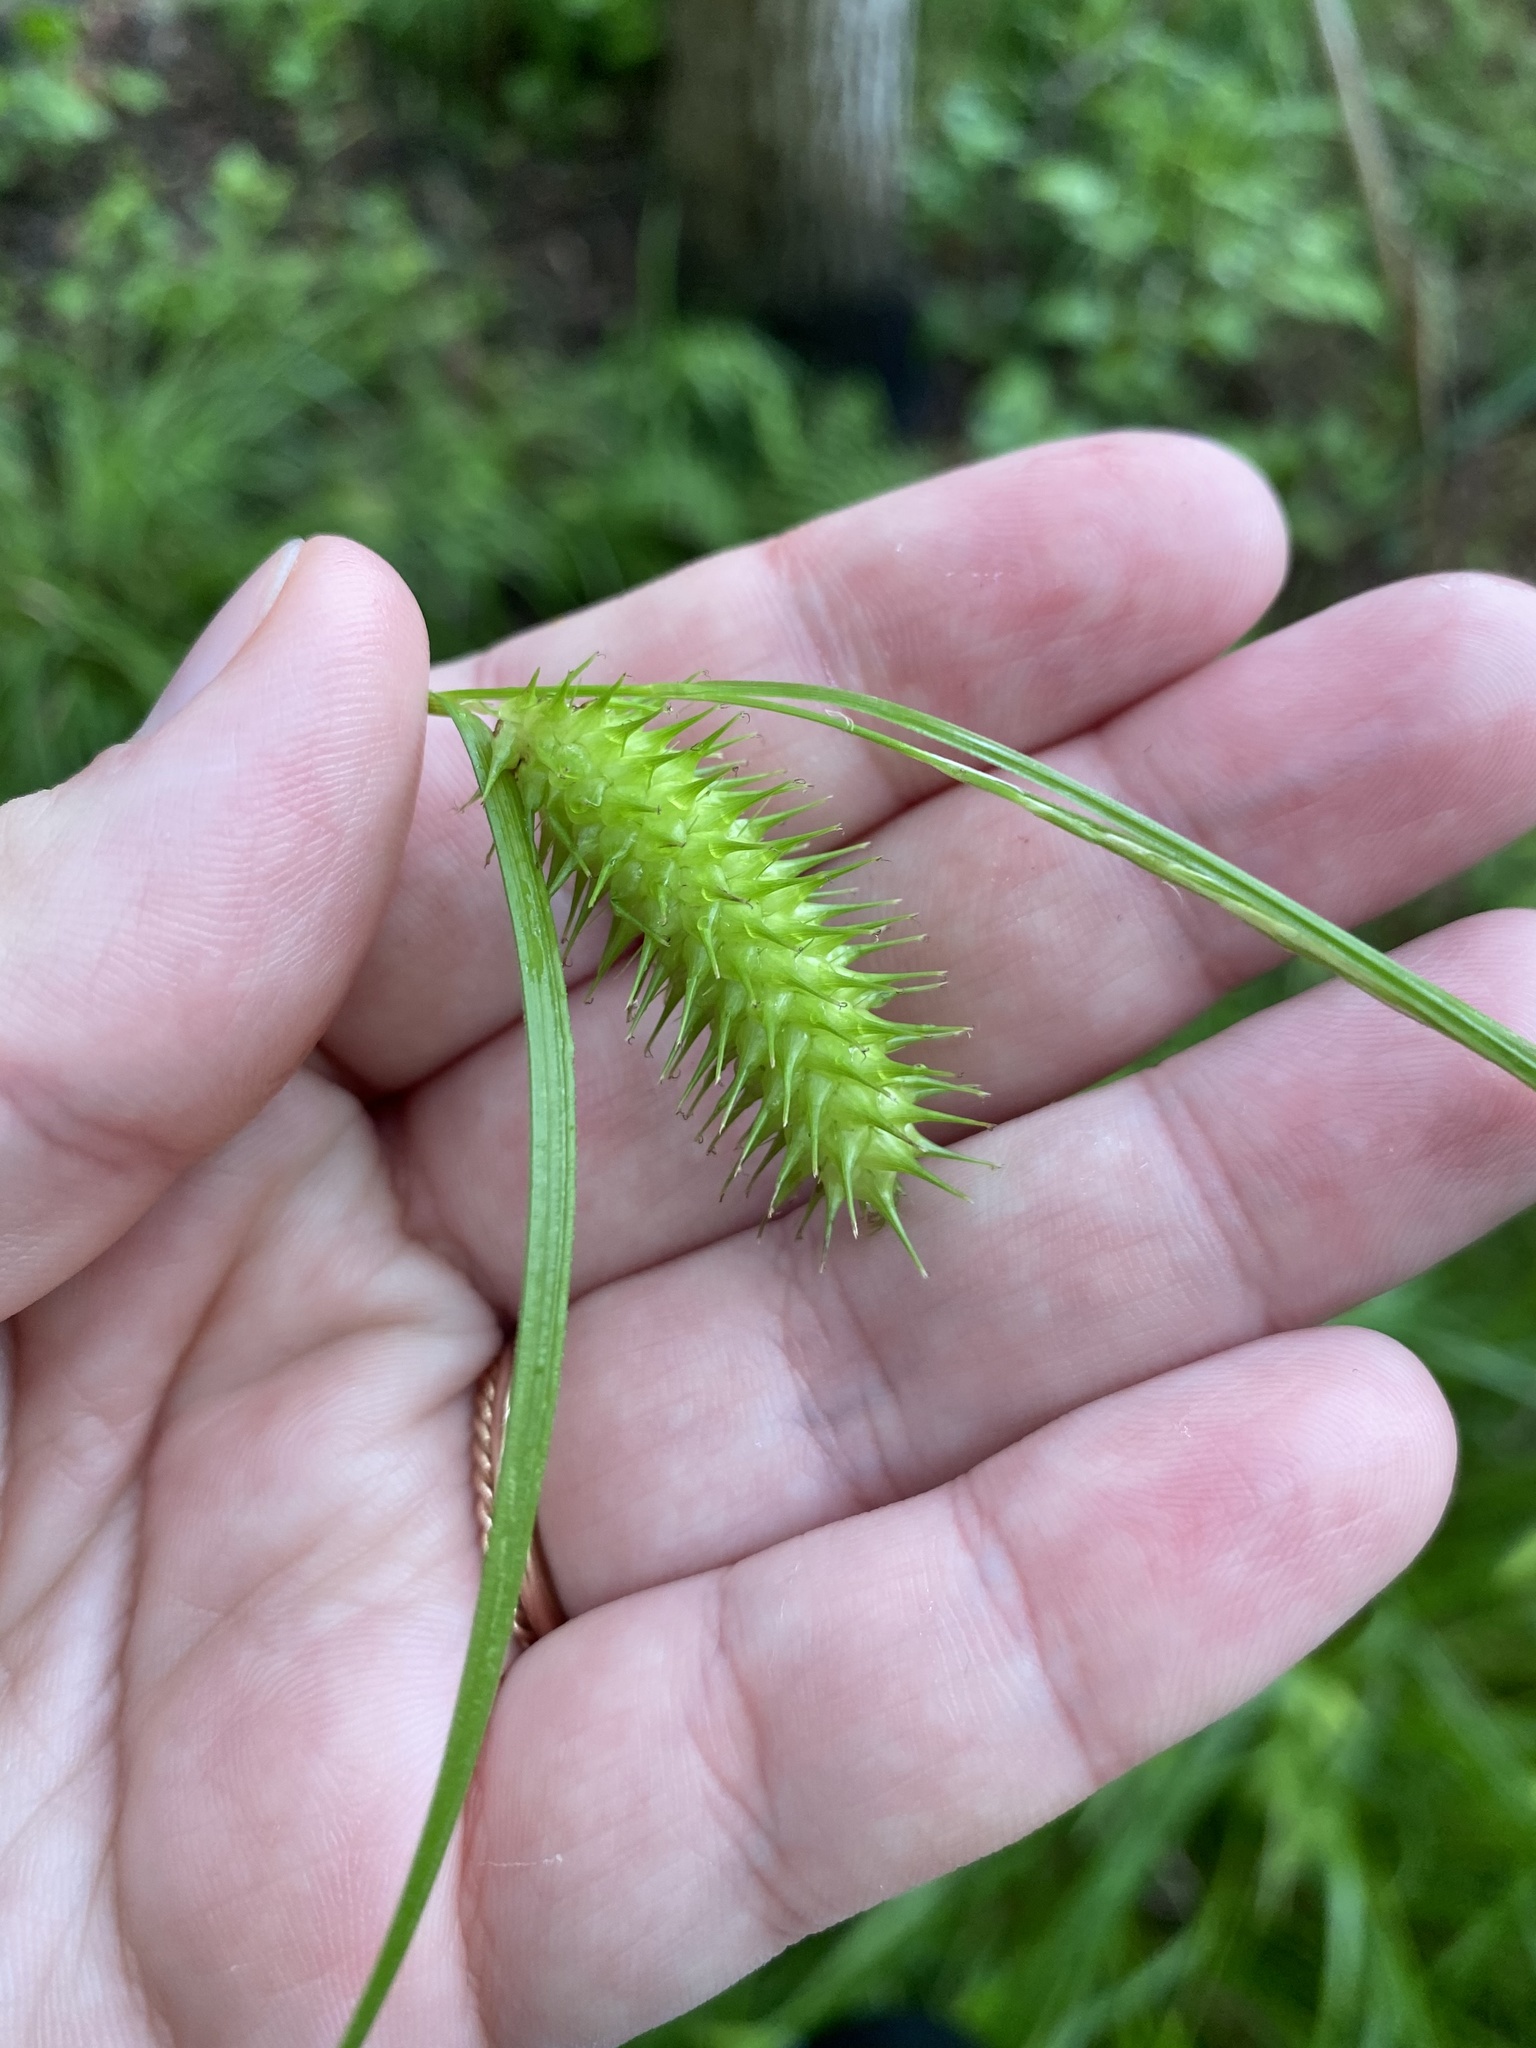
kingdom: Plantae
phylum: Tracheophyta
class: Liliopsida
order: Poales
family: Cyperaceae
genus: Carex
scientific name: Carex lurida
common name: Sallow sedge
